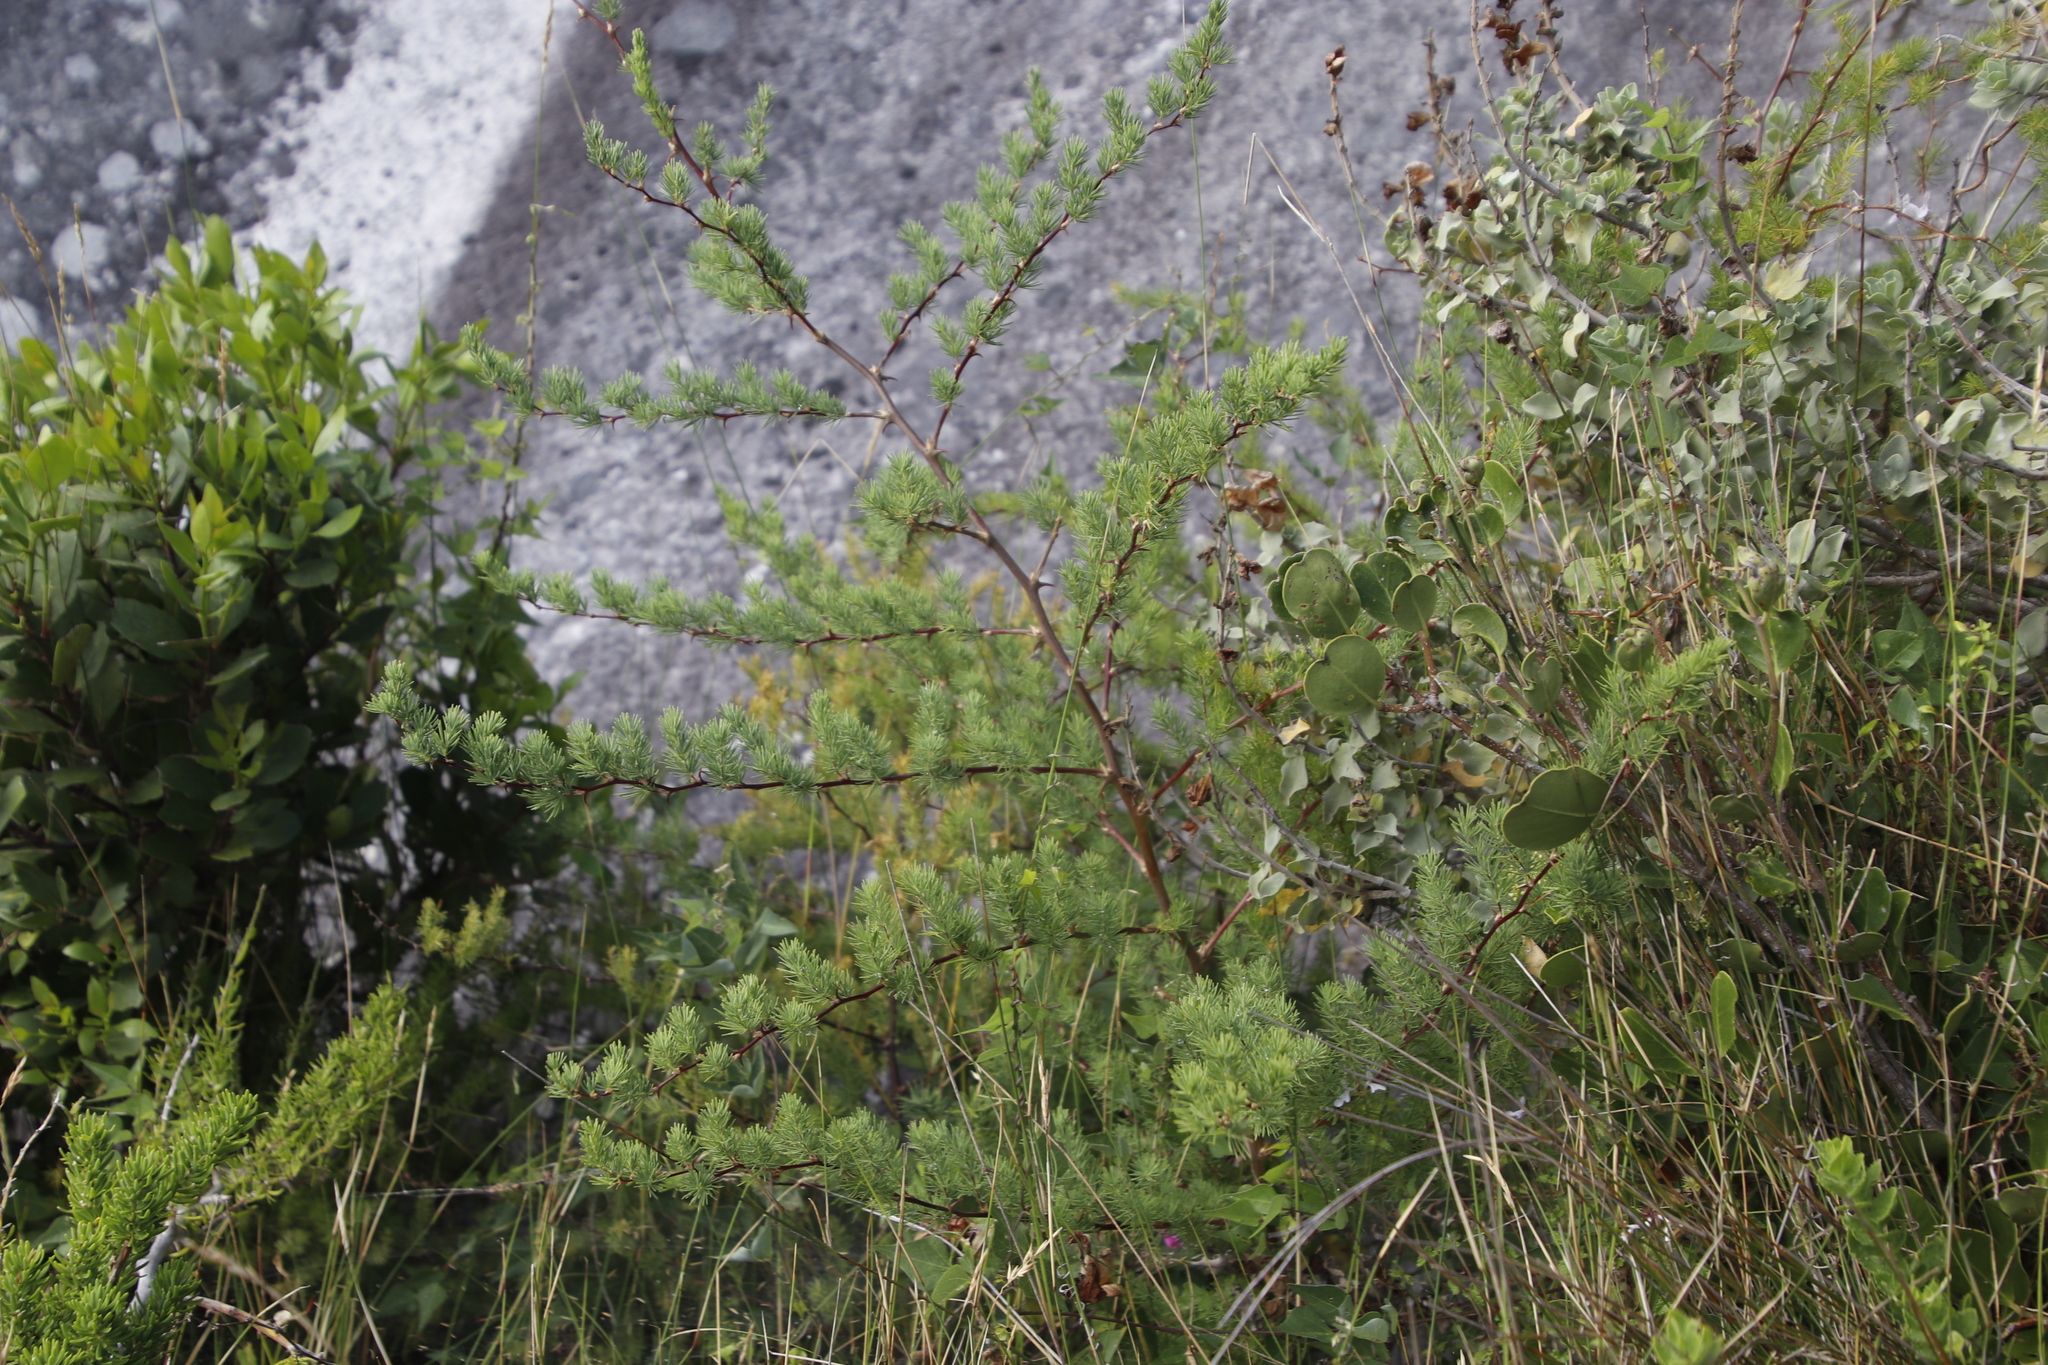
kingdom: Plantae
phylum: Tracheophyta
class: Liliopsida
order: Asparagales
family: Asparagaceae
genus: Asparagus
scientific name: Asparagus rubicundus
